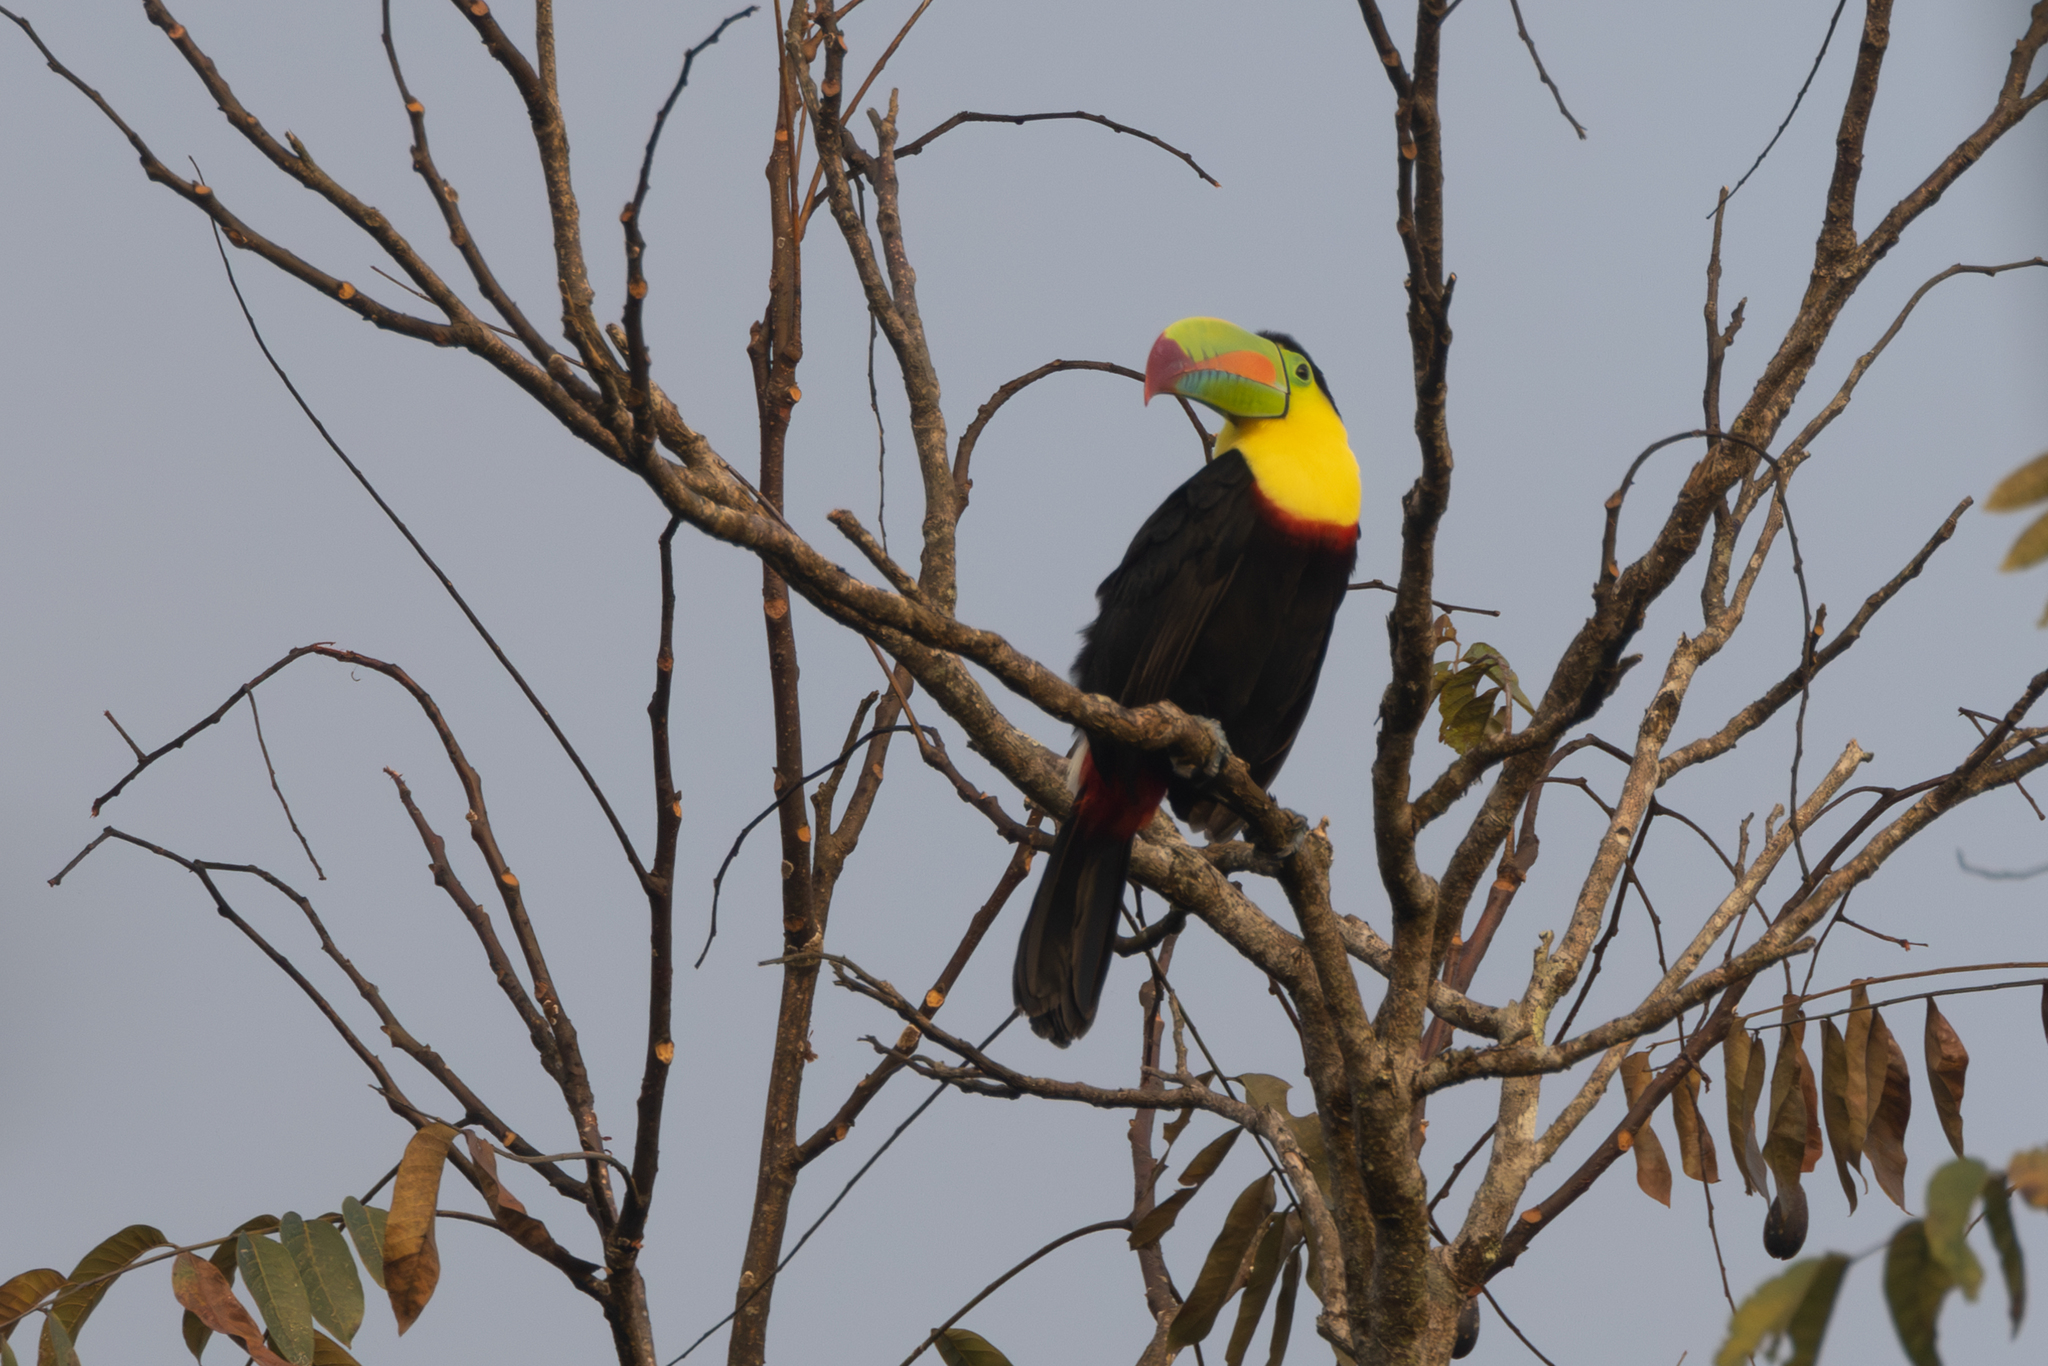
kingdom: Animalia
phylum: Chordata
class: Aves
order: Piciformes
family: Ramphastidae
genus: Ramphastos
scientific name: Ramphastos sulfuratus
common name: Keel-billed toucan
